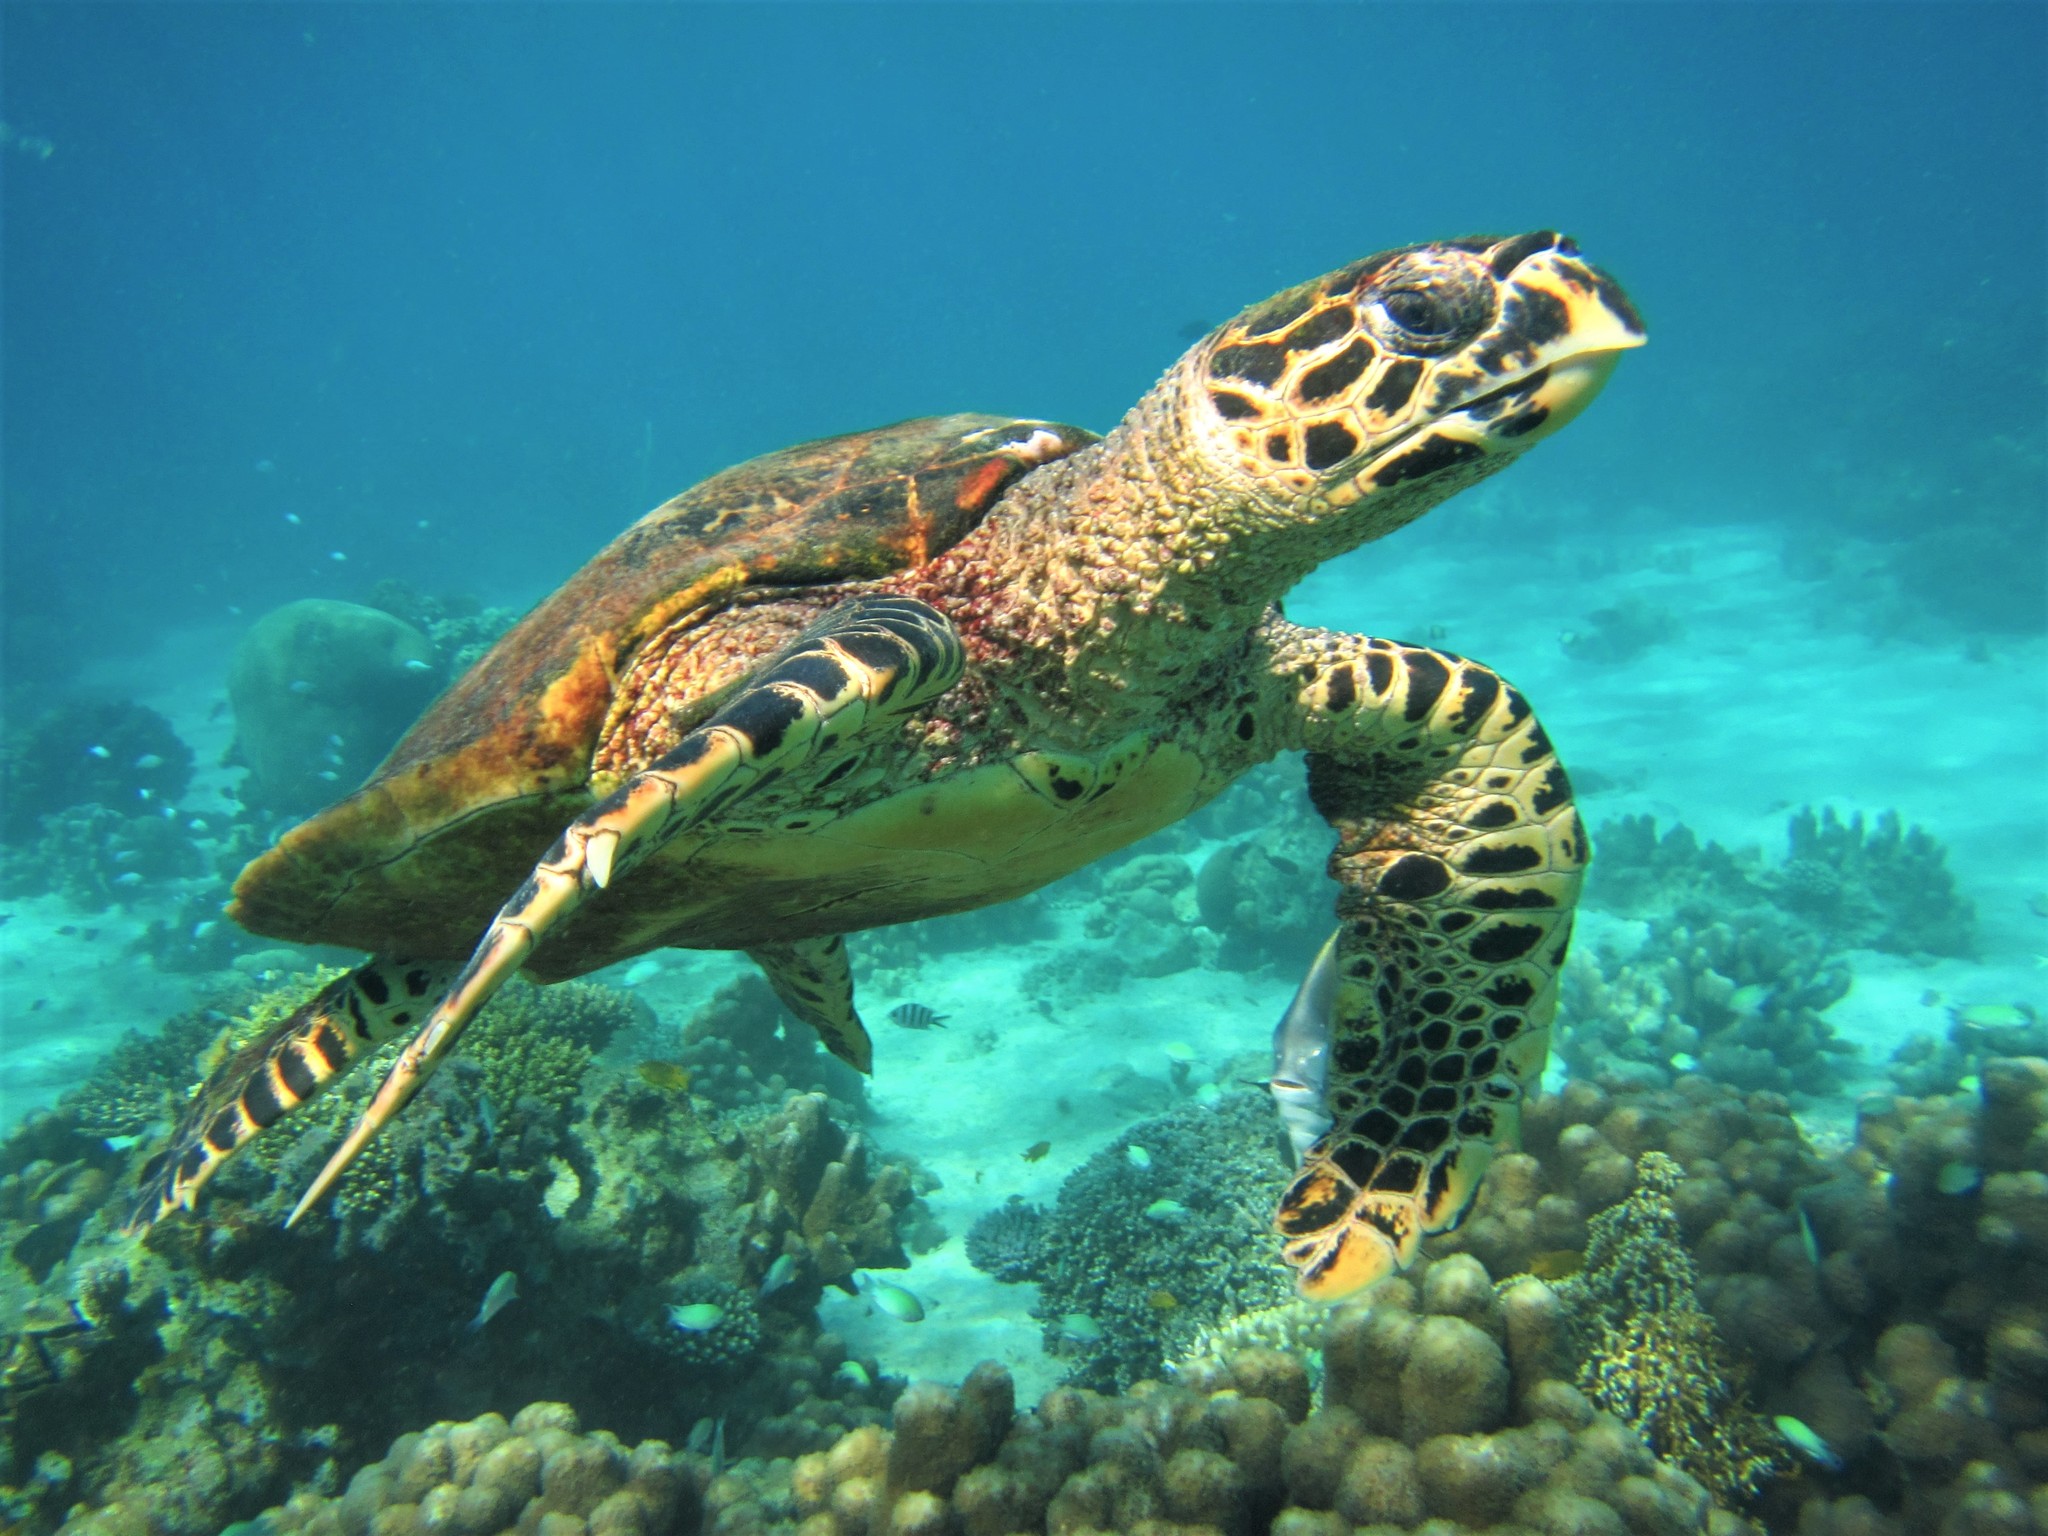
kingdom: Animalia
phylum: Chordata
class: Testudines
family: Cheloniidae
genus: Eretmochelys
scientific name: Eretmochelys imbricata
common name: Hawksbill turtle
